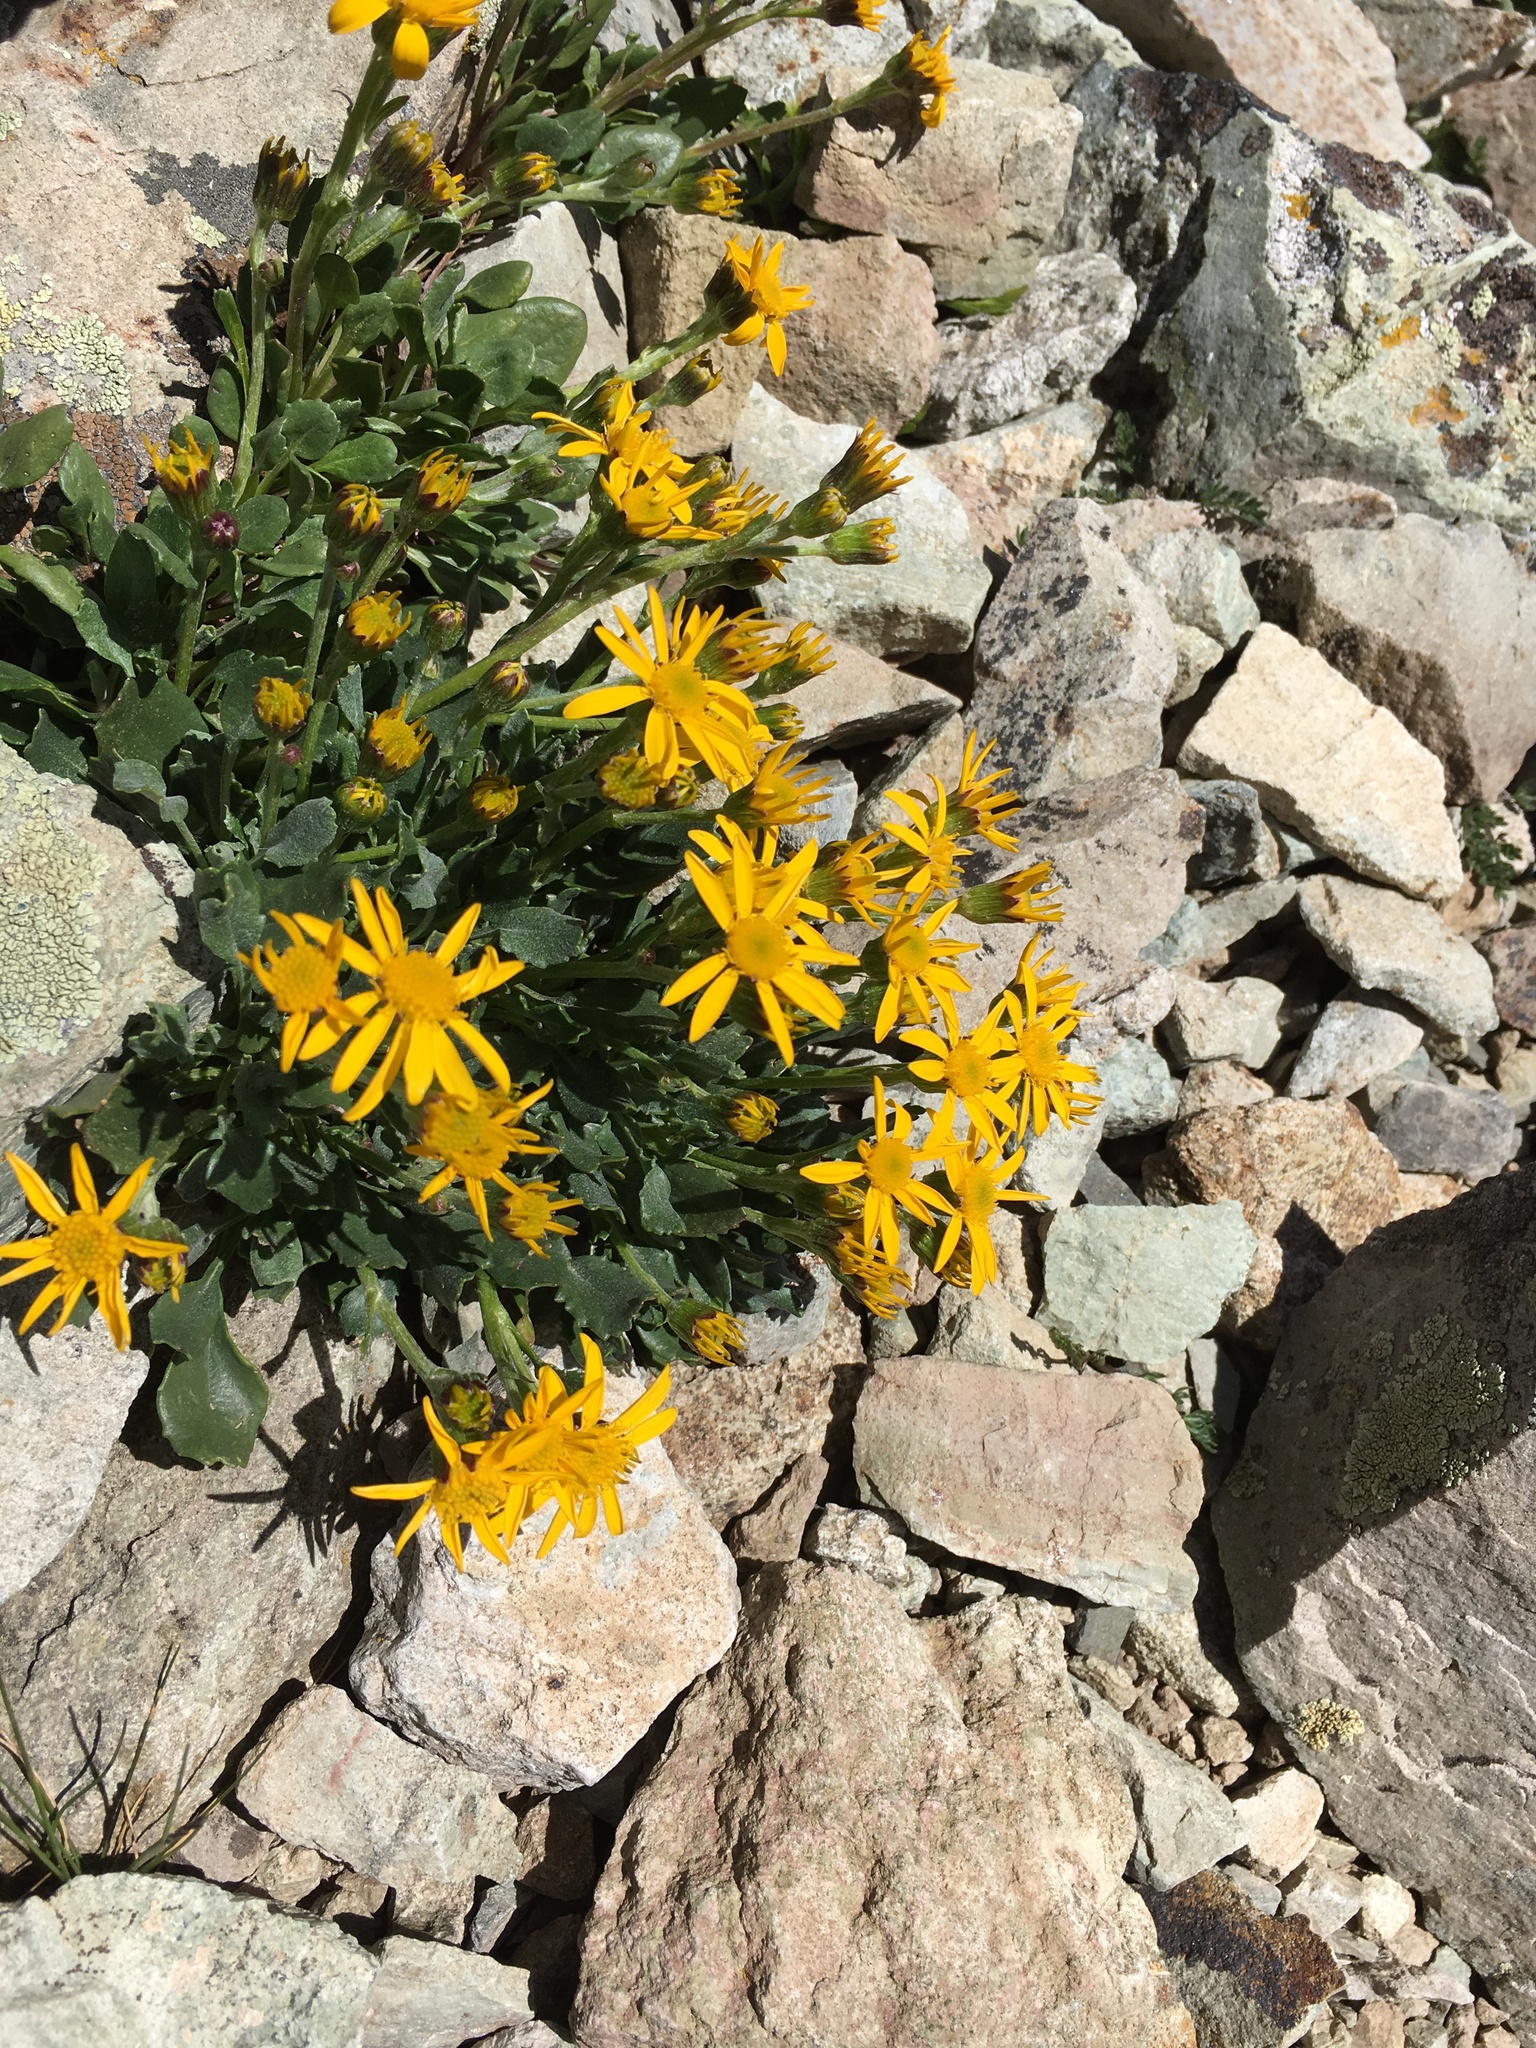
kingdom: Plantae
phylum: Tracheophyta
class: Magnoliopsida
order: Asterales
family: Asteraceae
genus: Senecio
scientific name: Senecio fremontii
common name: Fremont's groundsel
